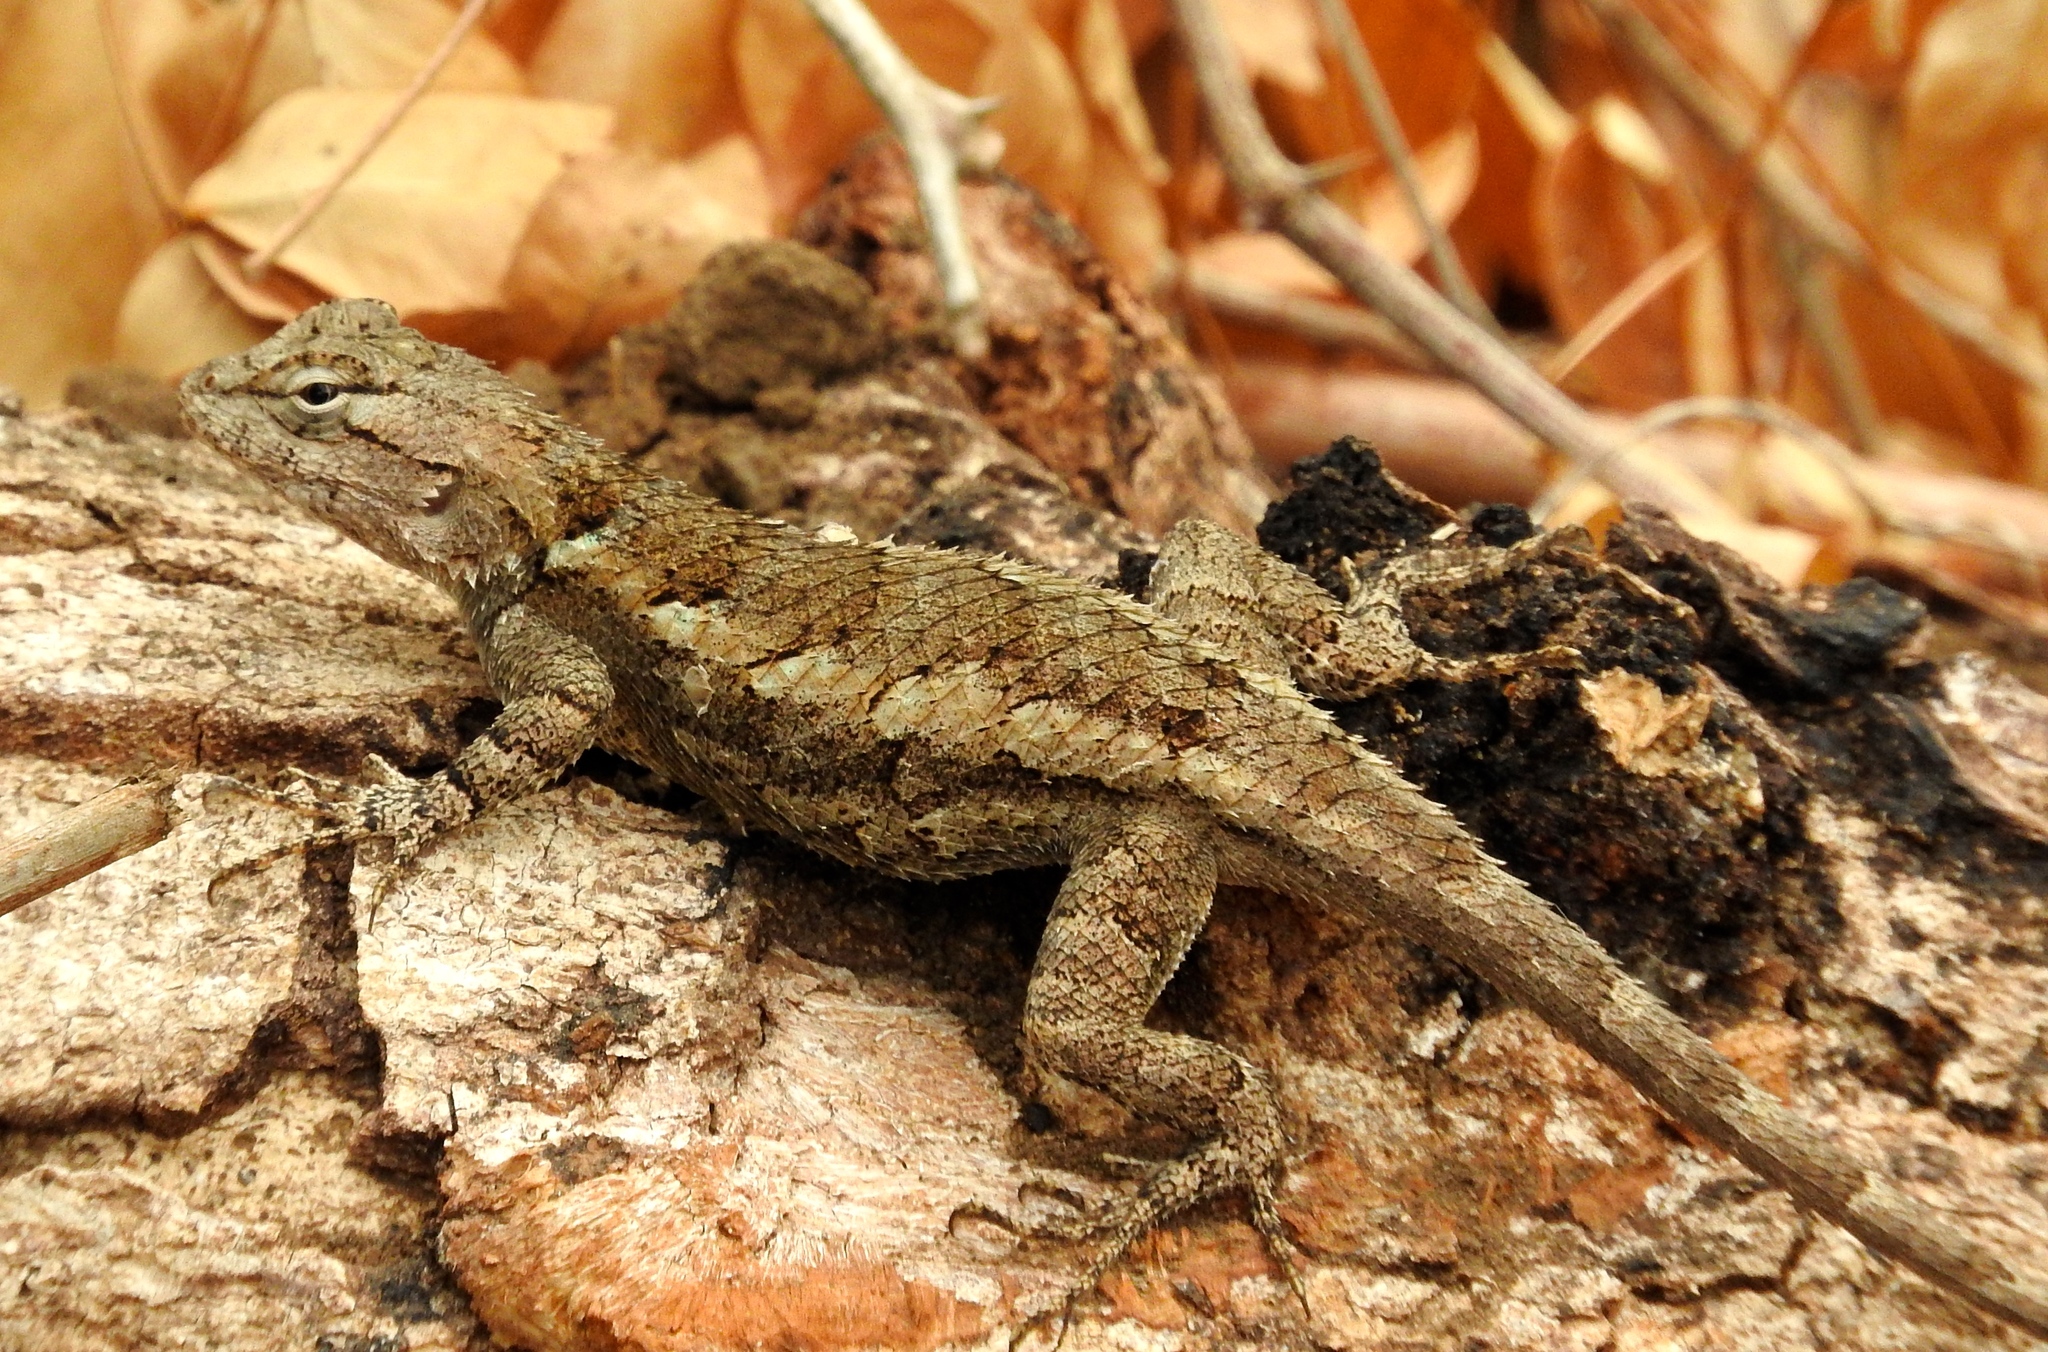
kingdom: Animalia
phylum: Chordata
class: Squamata
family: Phrynosomatidae
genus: Sceloporus
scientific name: Sceloporus clarkii
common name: Clark's spiny lizard
